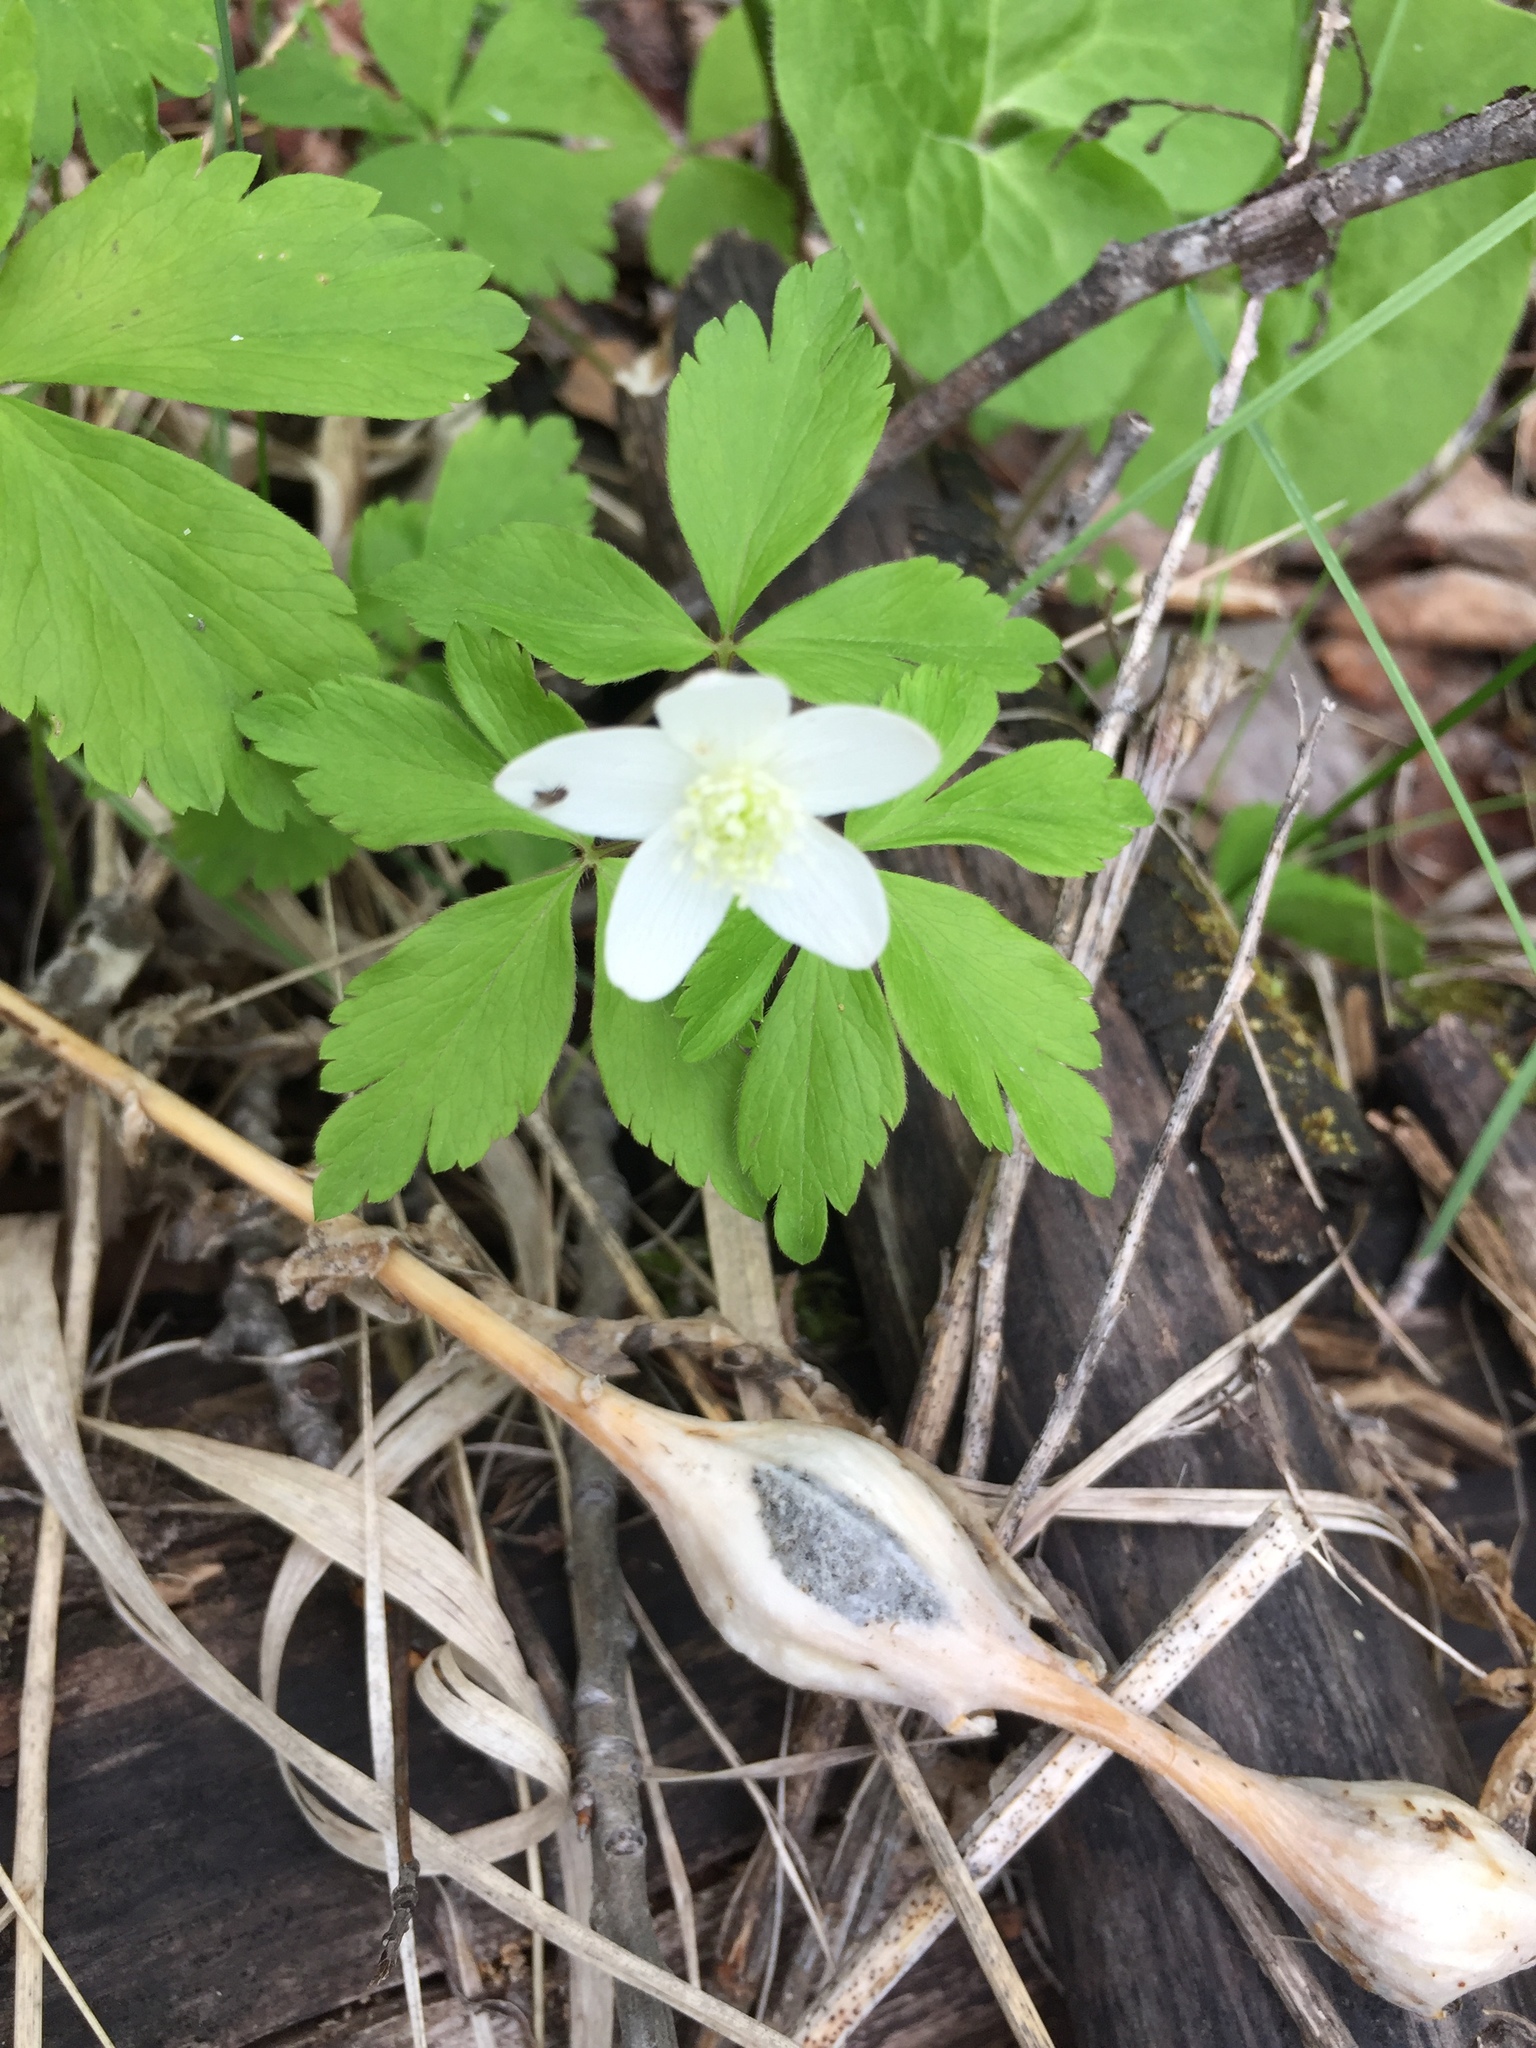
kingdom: Plantae
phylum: Tracheophyta
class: Magnoliopsida
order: Ranunculales
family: Ranunculaceae
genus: Anemone
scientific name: Anemone quinquefolia
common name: Wood anemone
